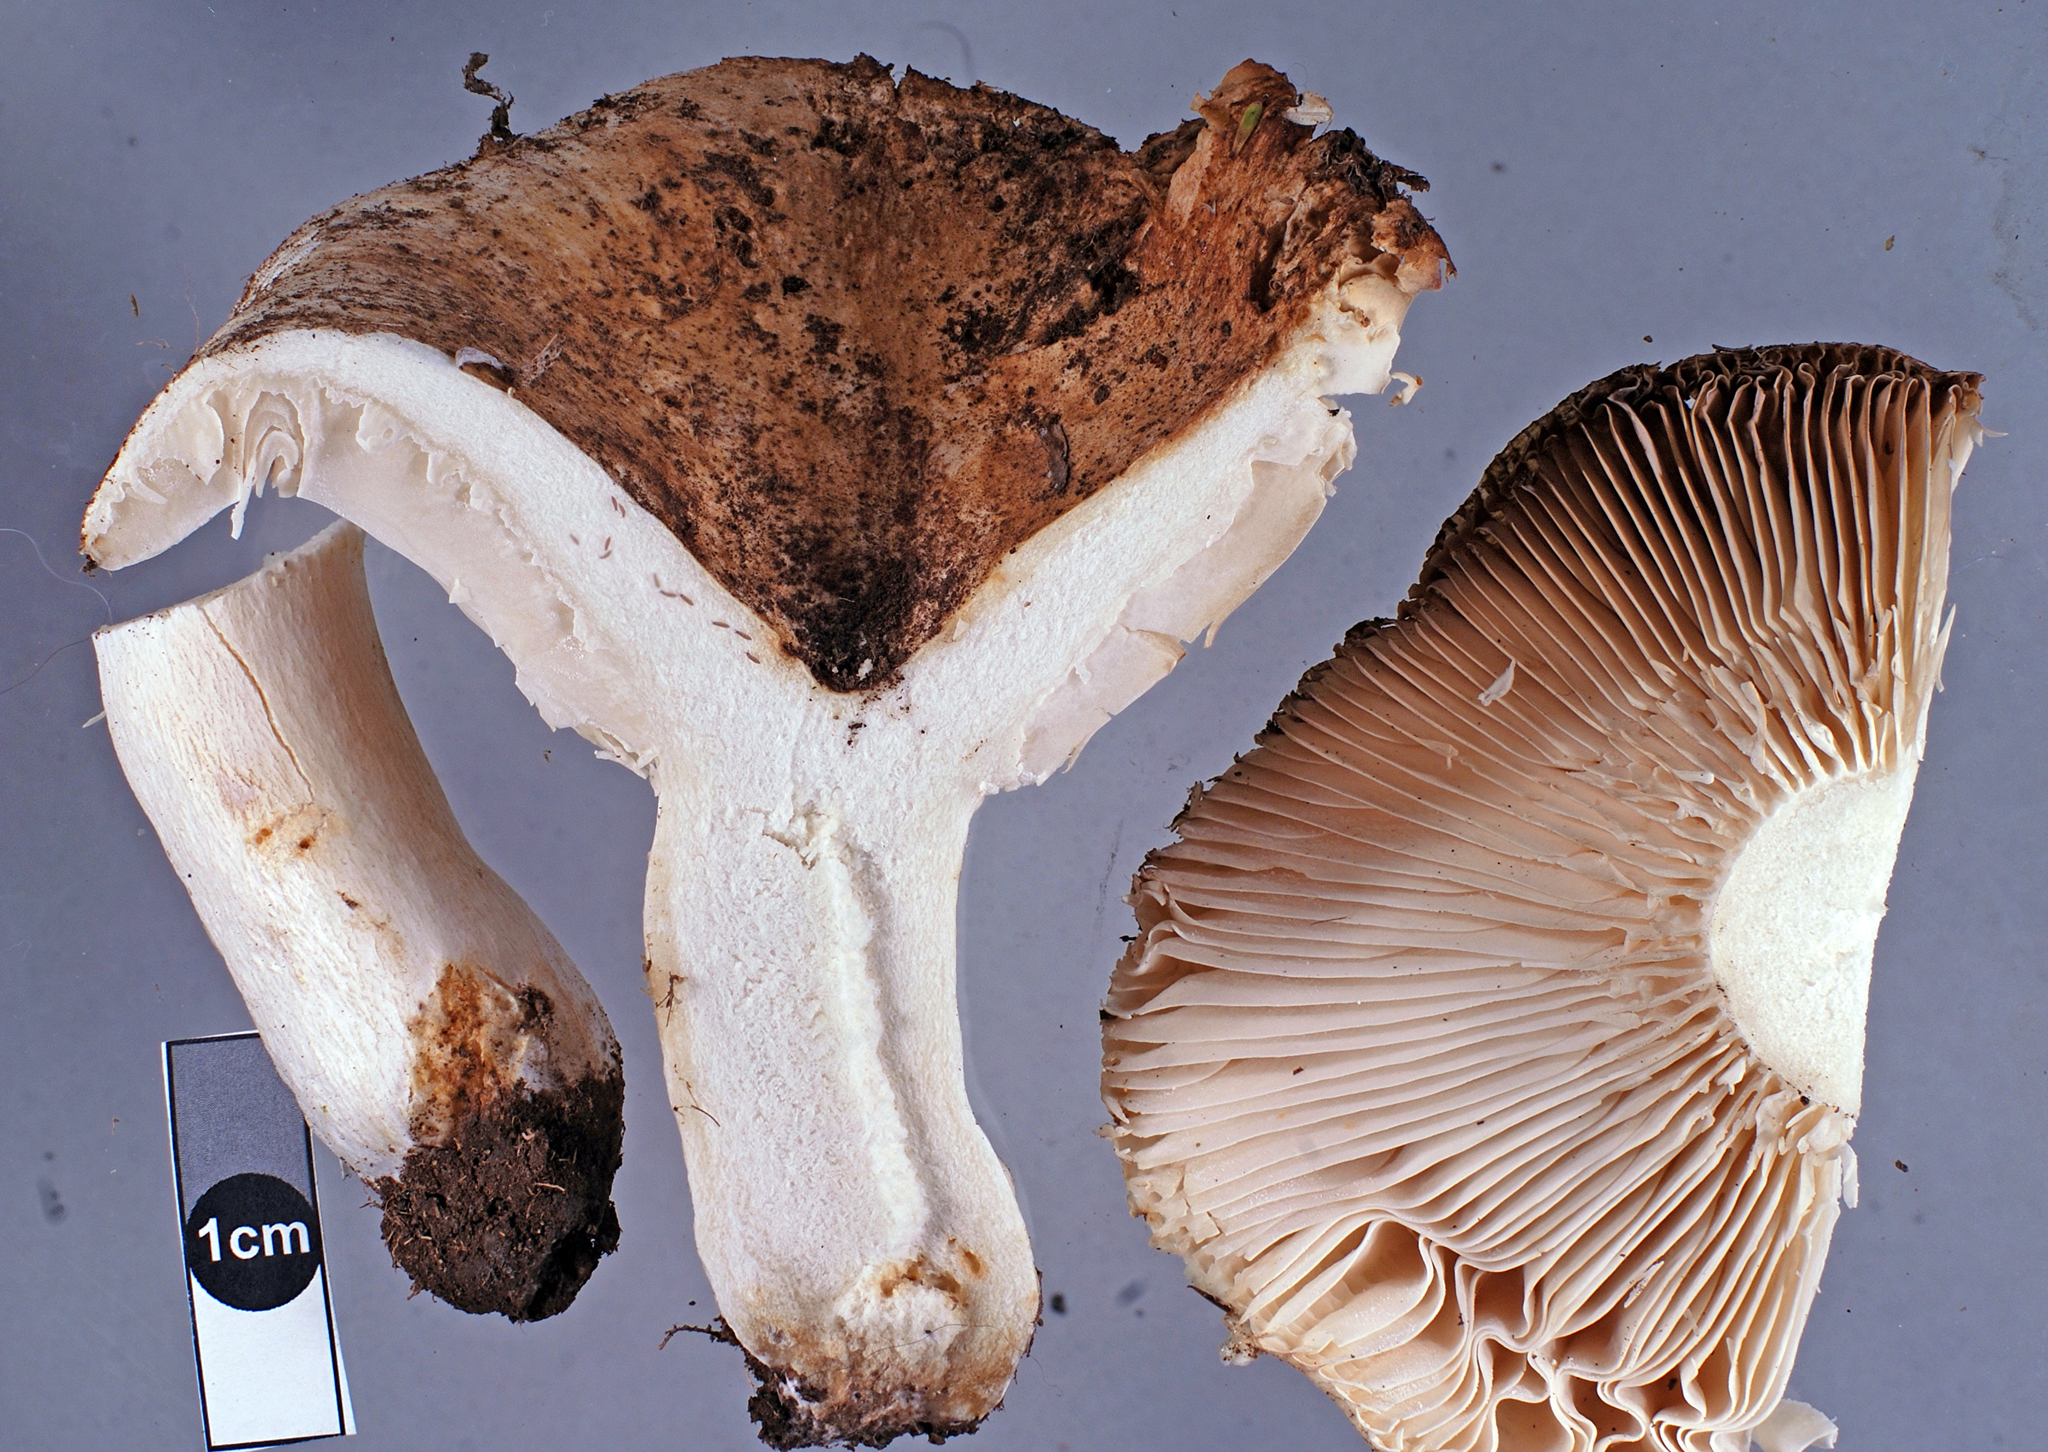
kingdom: Fungi
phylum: Basidiomycota
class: Agaricomycetes
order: Russulales
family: Russulaceae
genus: Russula
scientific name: Russula allochroa
